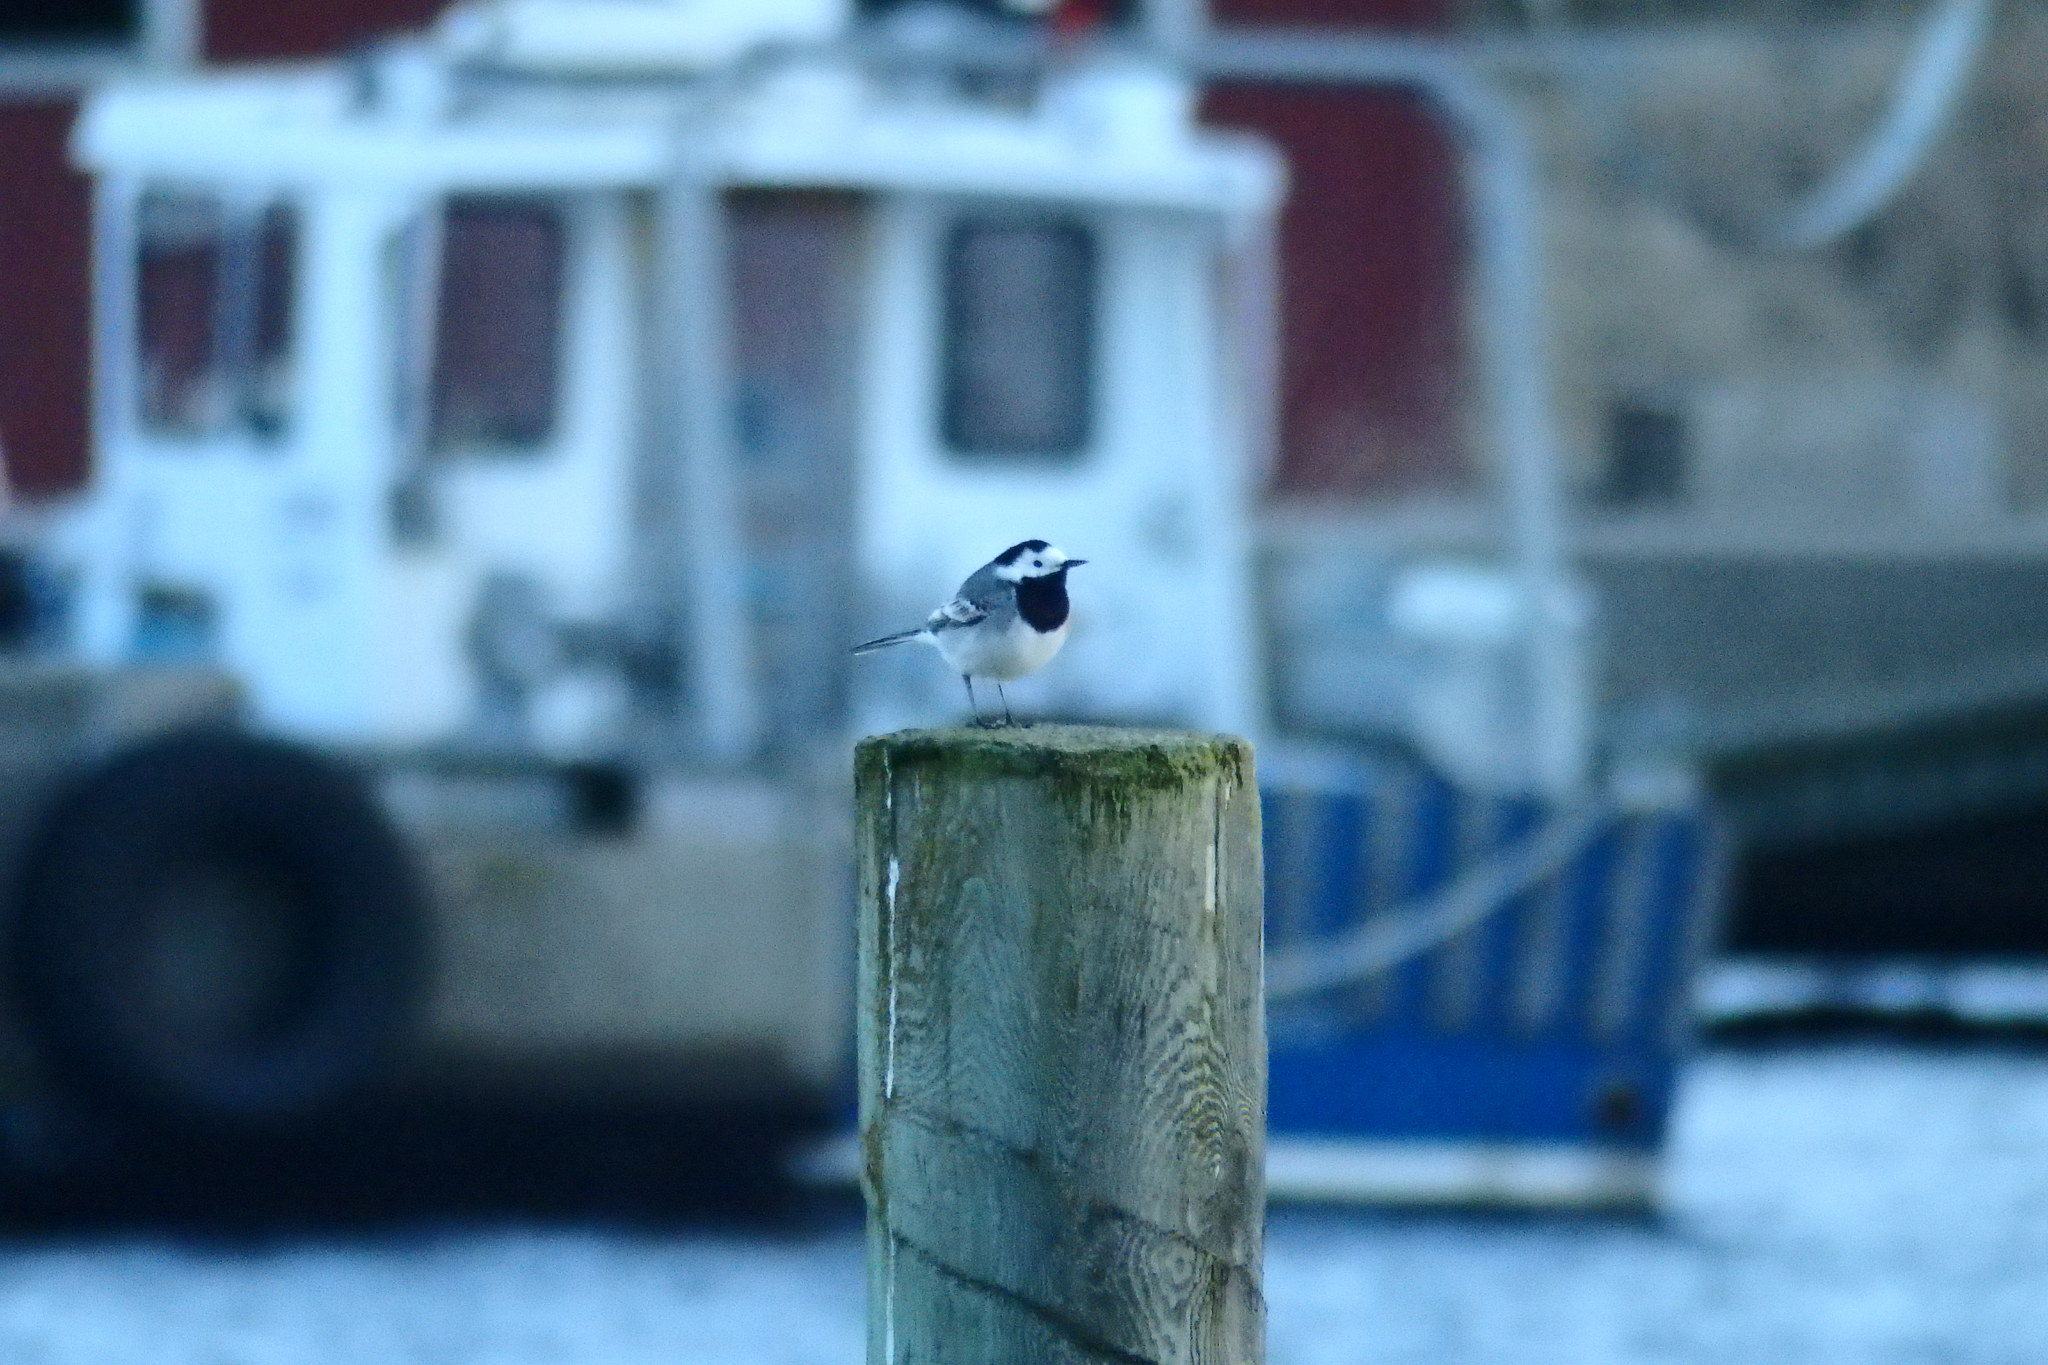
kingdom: Animalia
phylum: Chordata
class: Aves
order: Passeriformes
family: Motacillidae
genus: Motacilla
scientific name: Motacilla alba
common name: White wagtail
